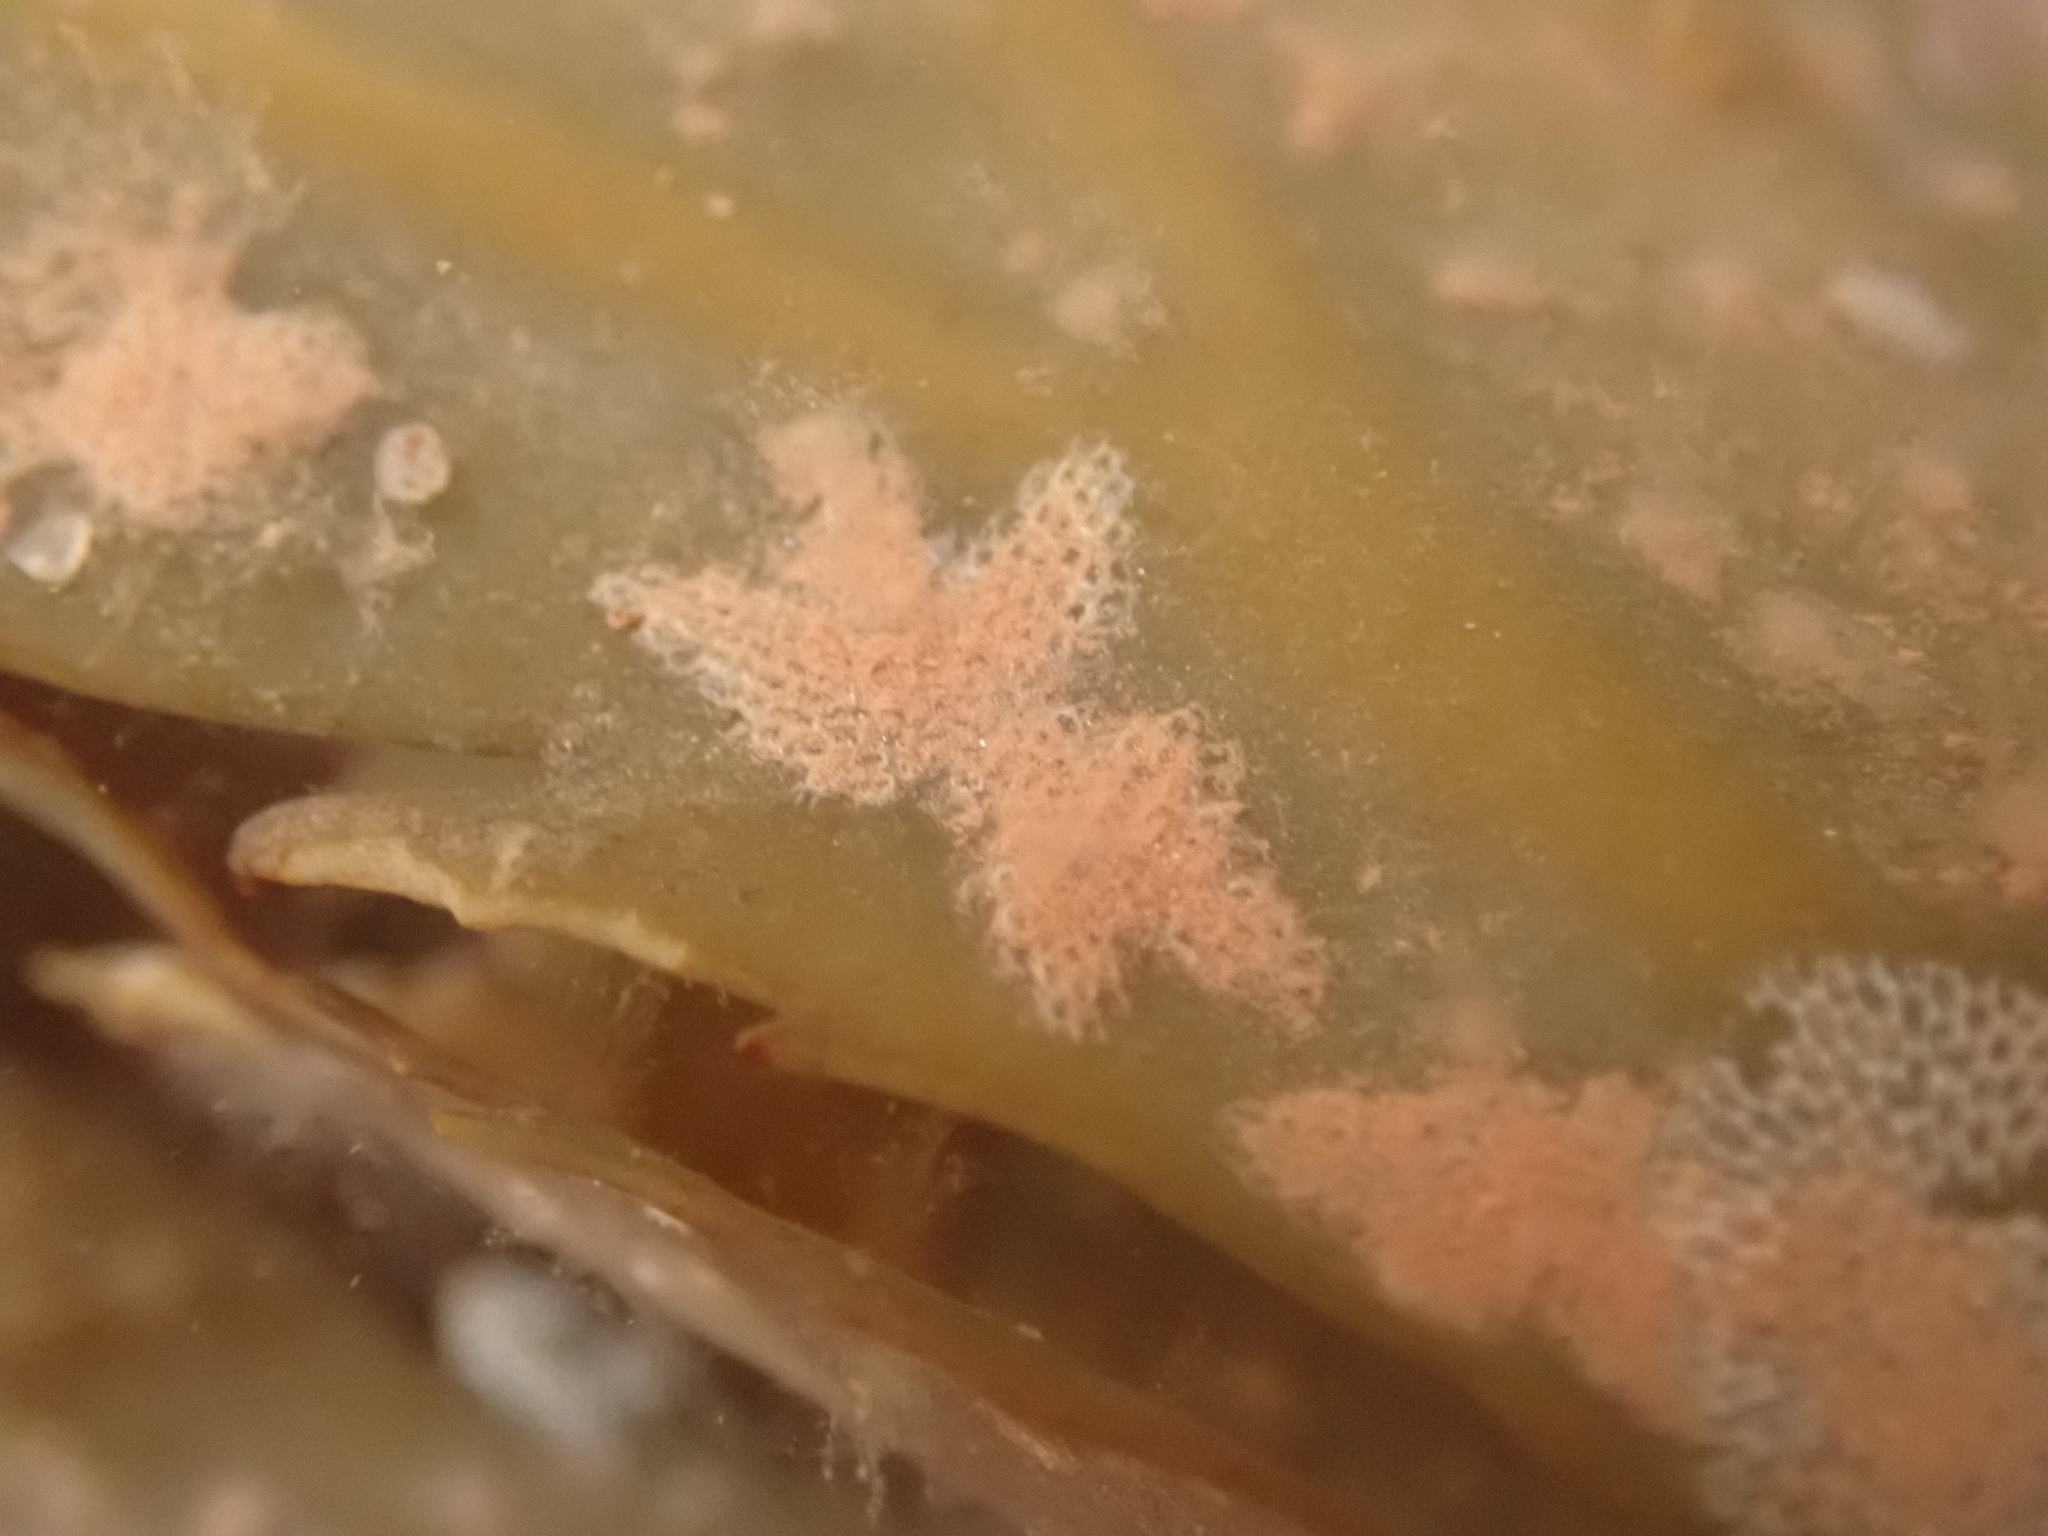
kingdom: Animalia
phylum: Bryozoa
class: Gymnolaemata
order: Cheilostomatida
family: Electridae
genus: Electra
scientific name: Electra pilosa
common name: Hairy sea-mat
